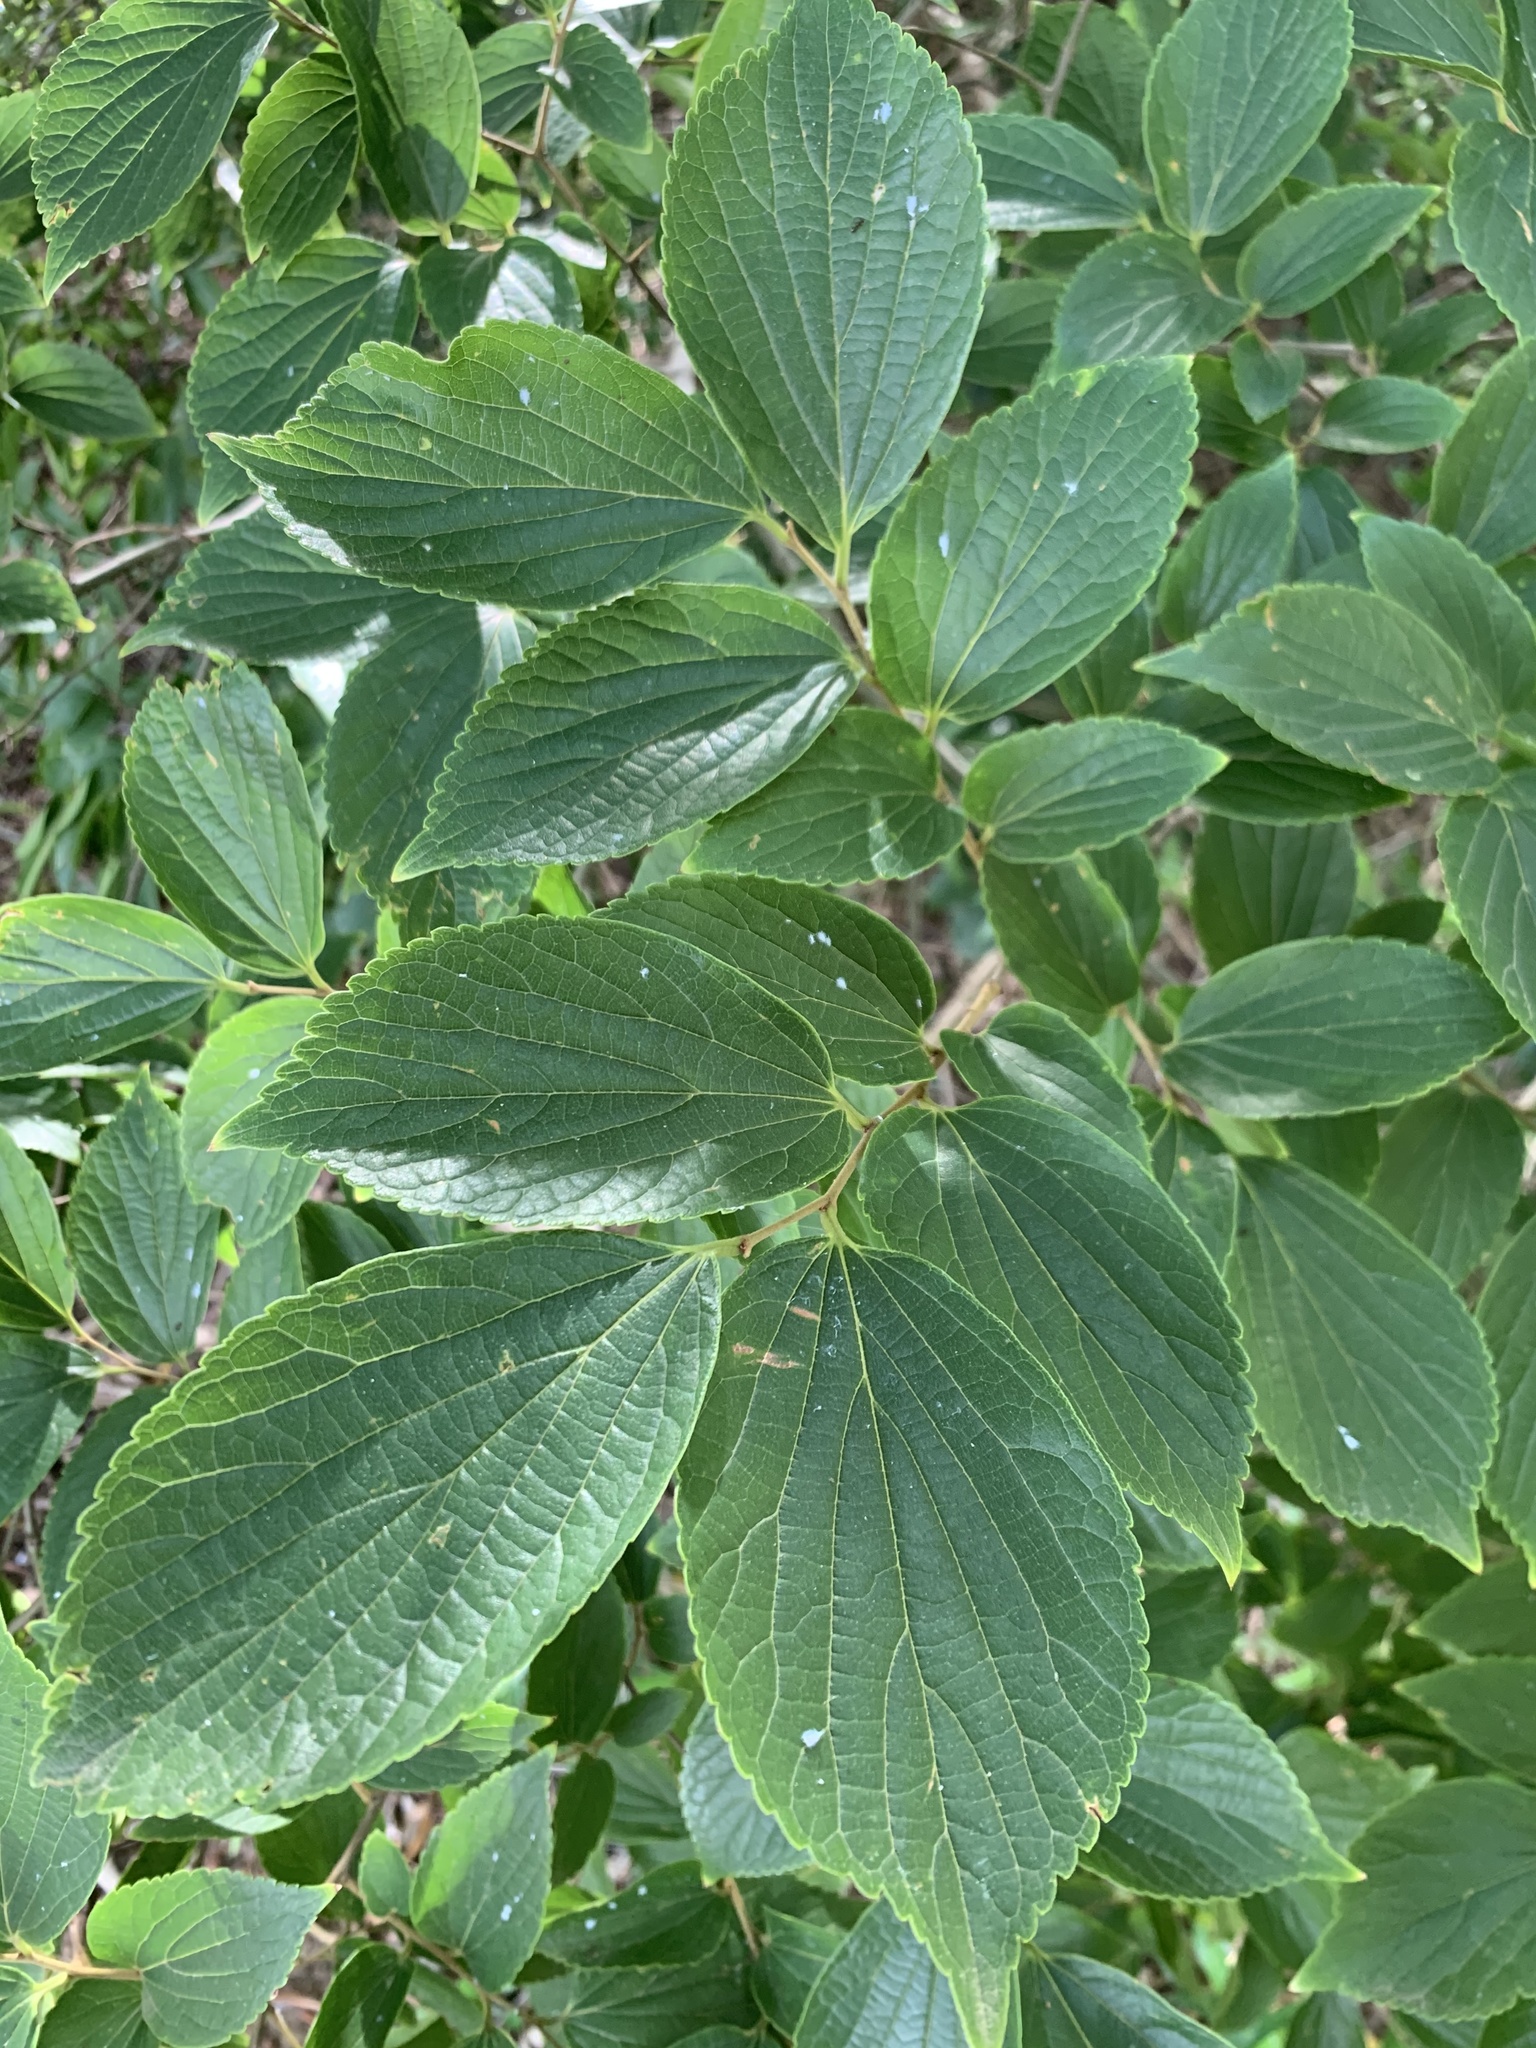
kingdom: Plantae
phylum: Tracheophyta
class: Magnoliopsida
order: Rosales
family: Cannabaceae
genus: Celtis
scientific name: Celtis sinensis
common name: Chinese hackberry
